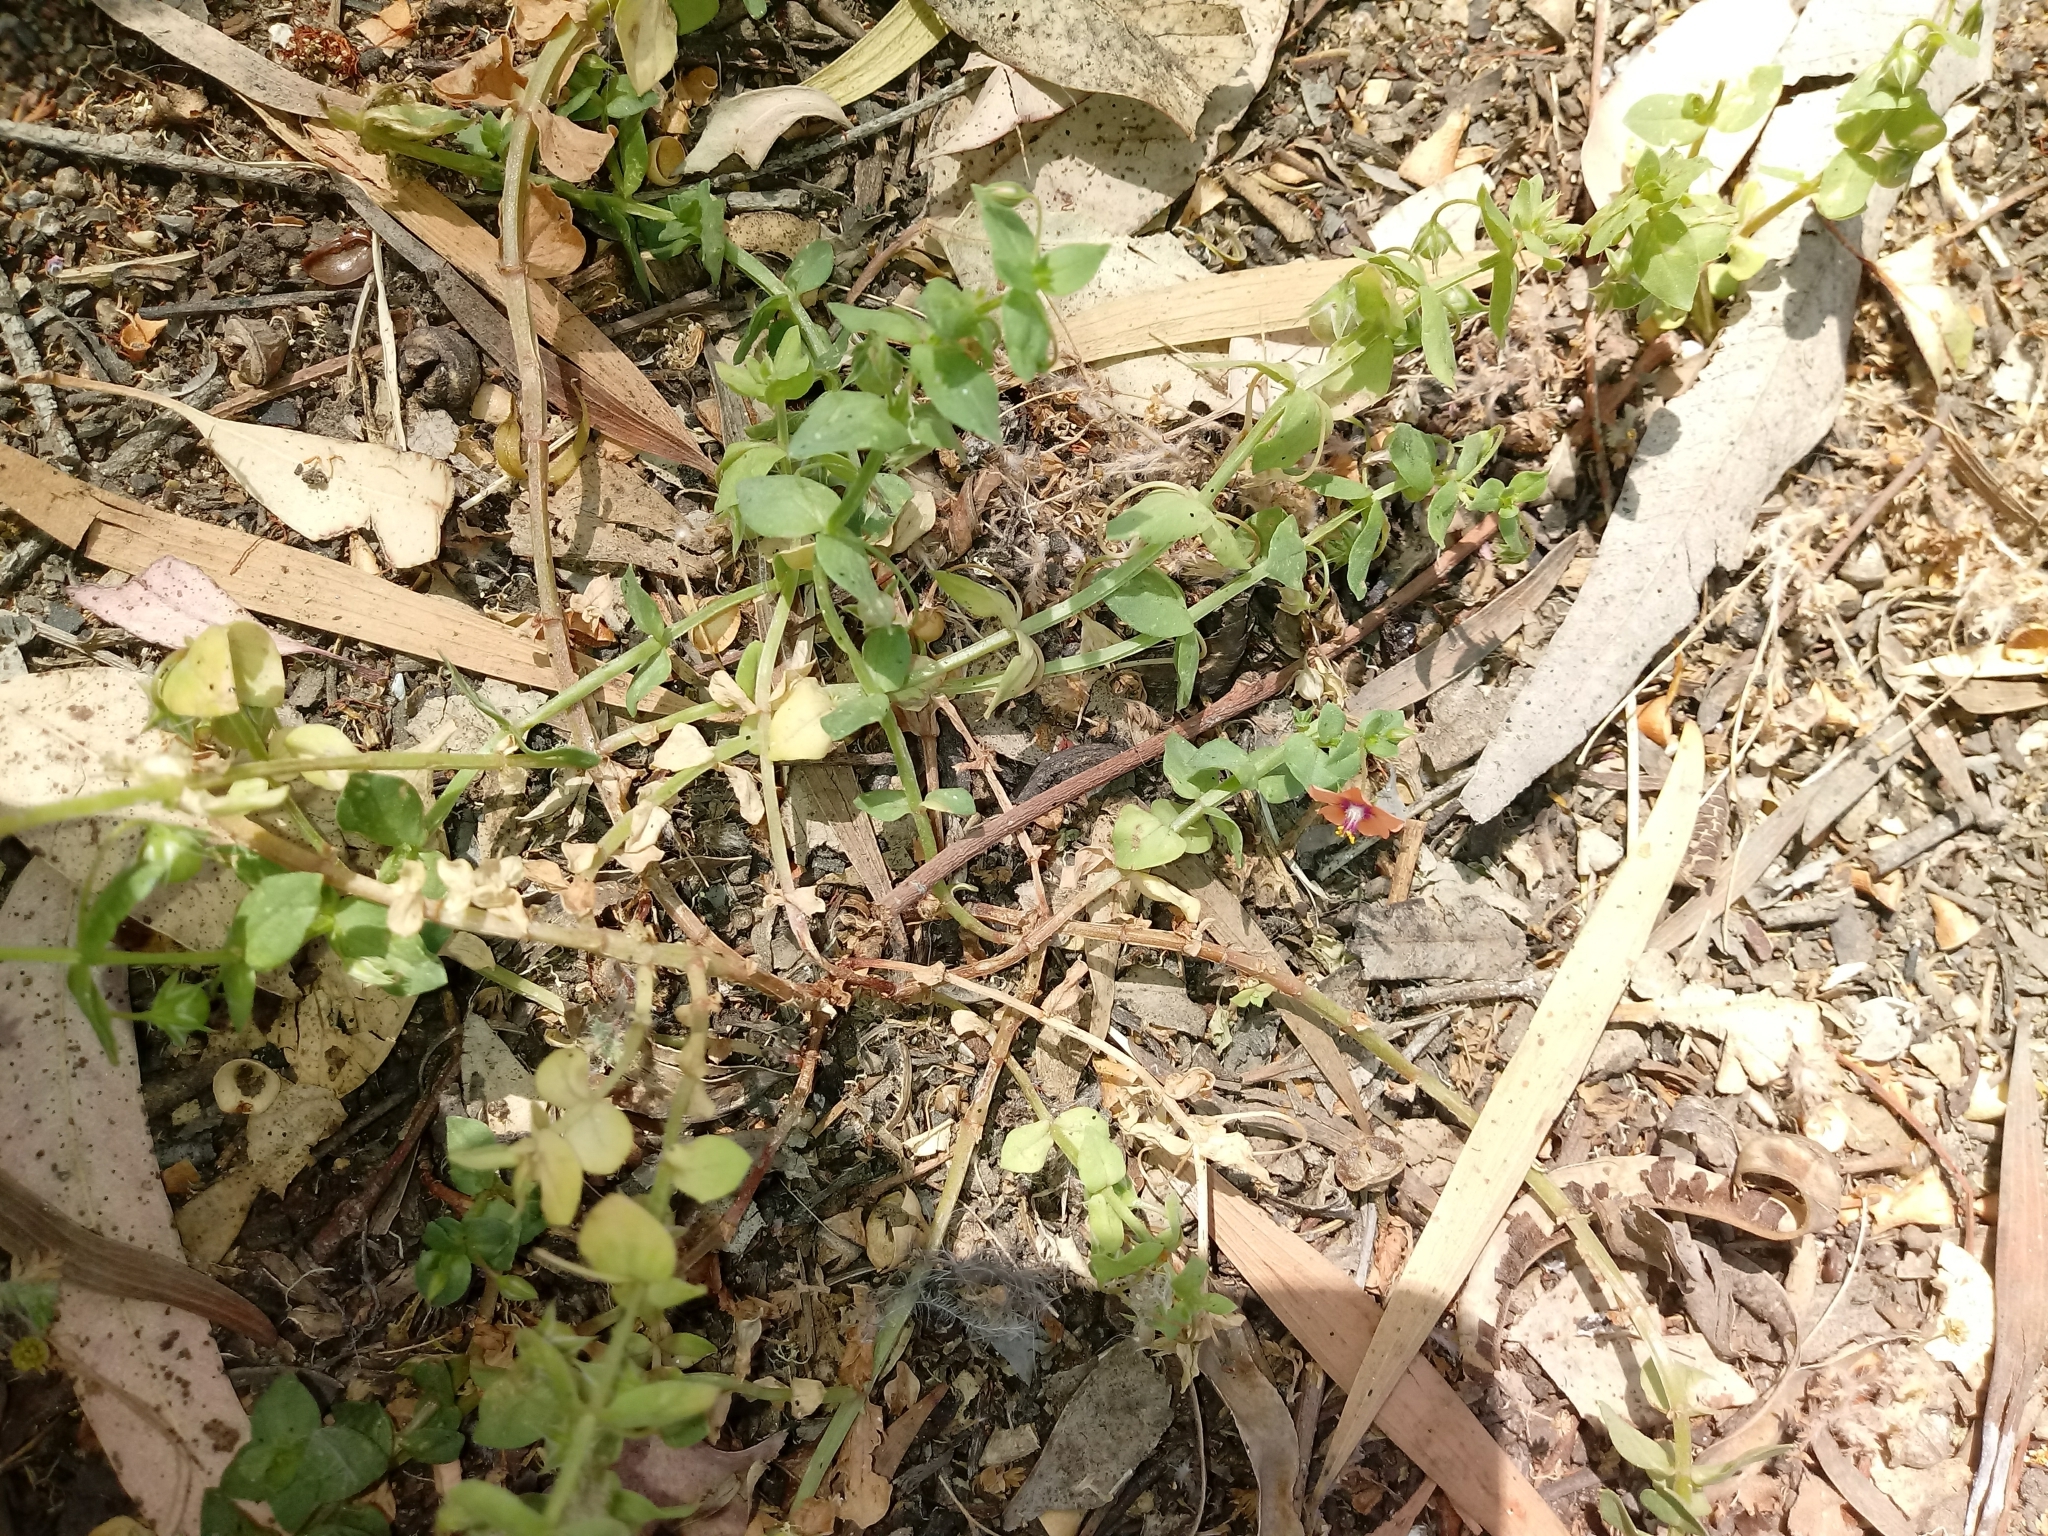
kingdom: Plantae
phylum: Tracheophyta
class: Magnoliopsida
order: Ericales
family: Primulaceae
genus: Lysimachia
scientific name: Lysimachia arvensis
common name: Scarlet pimpernel
